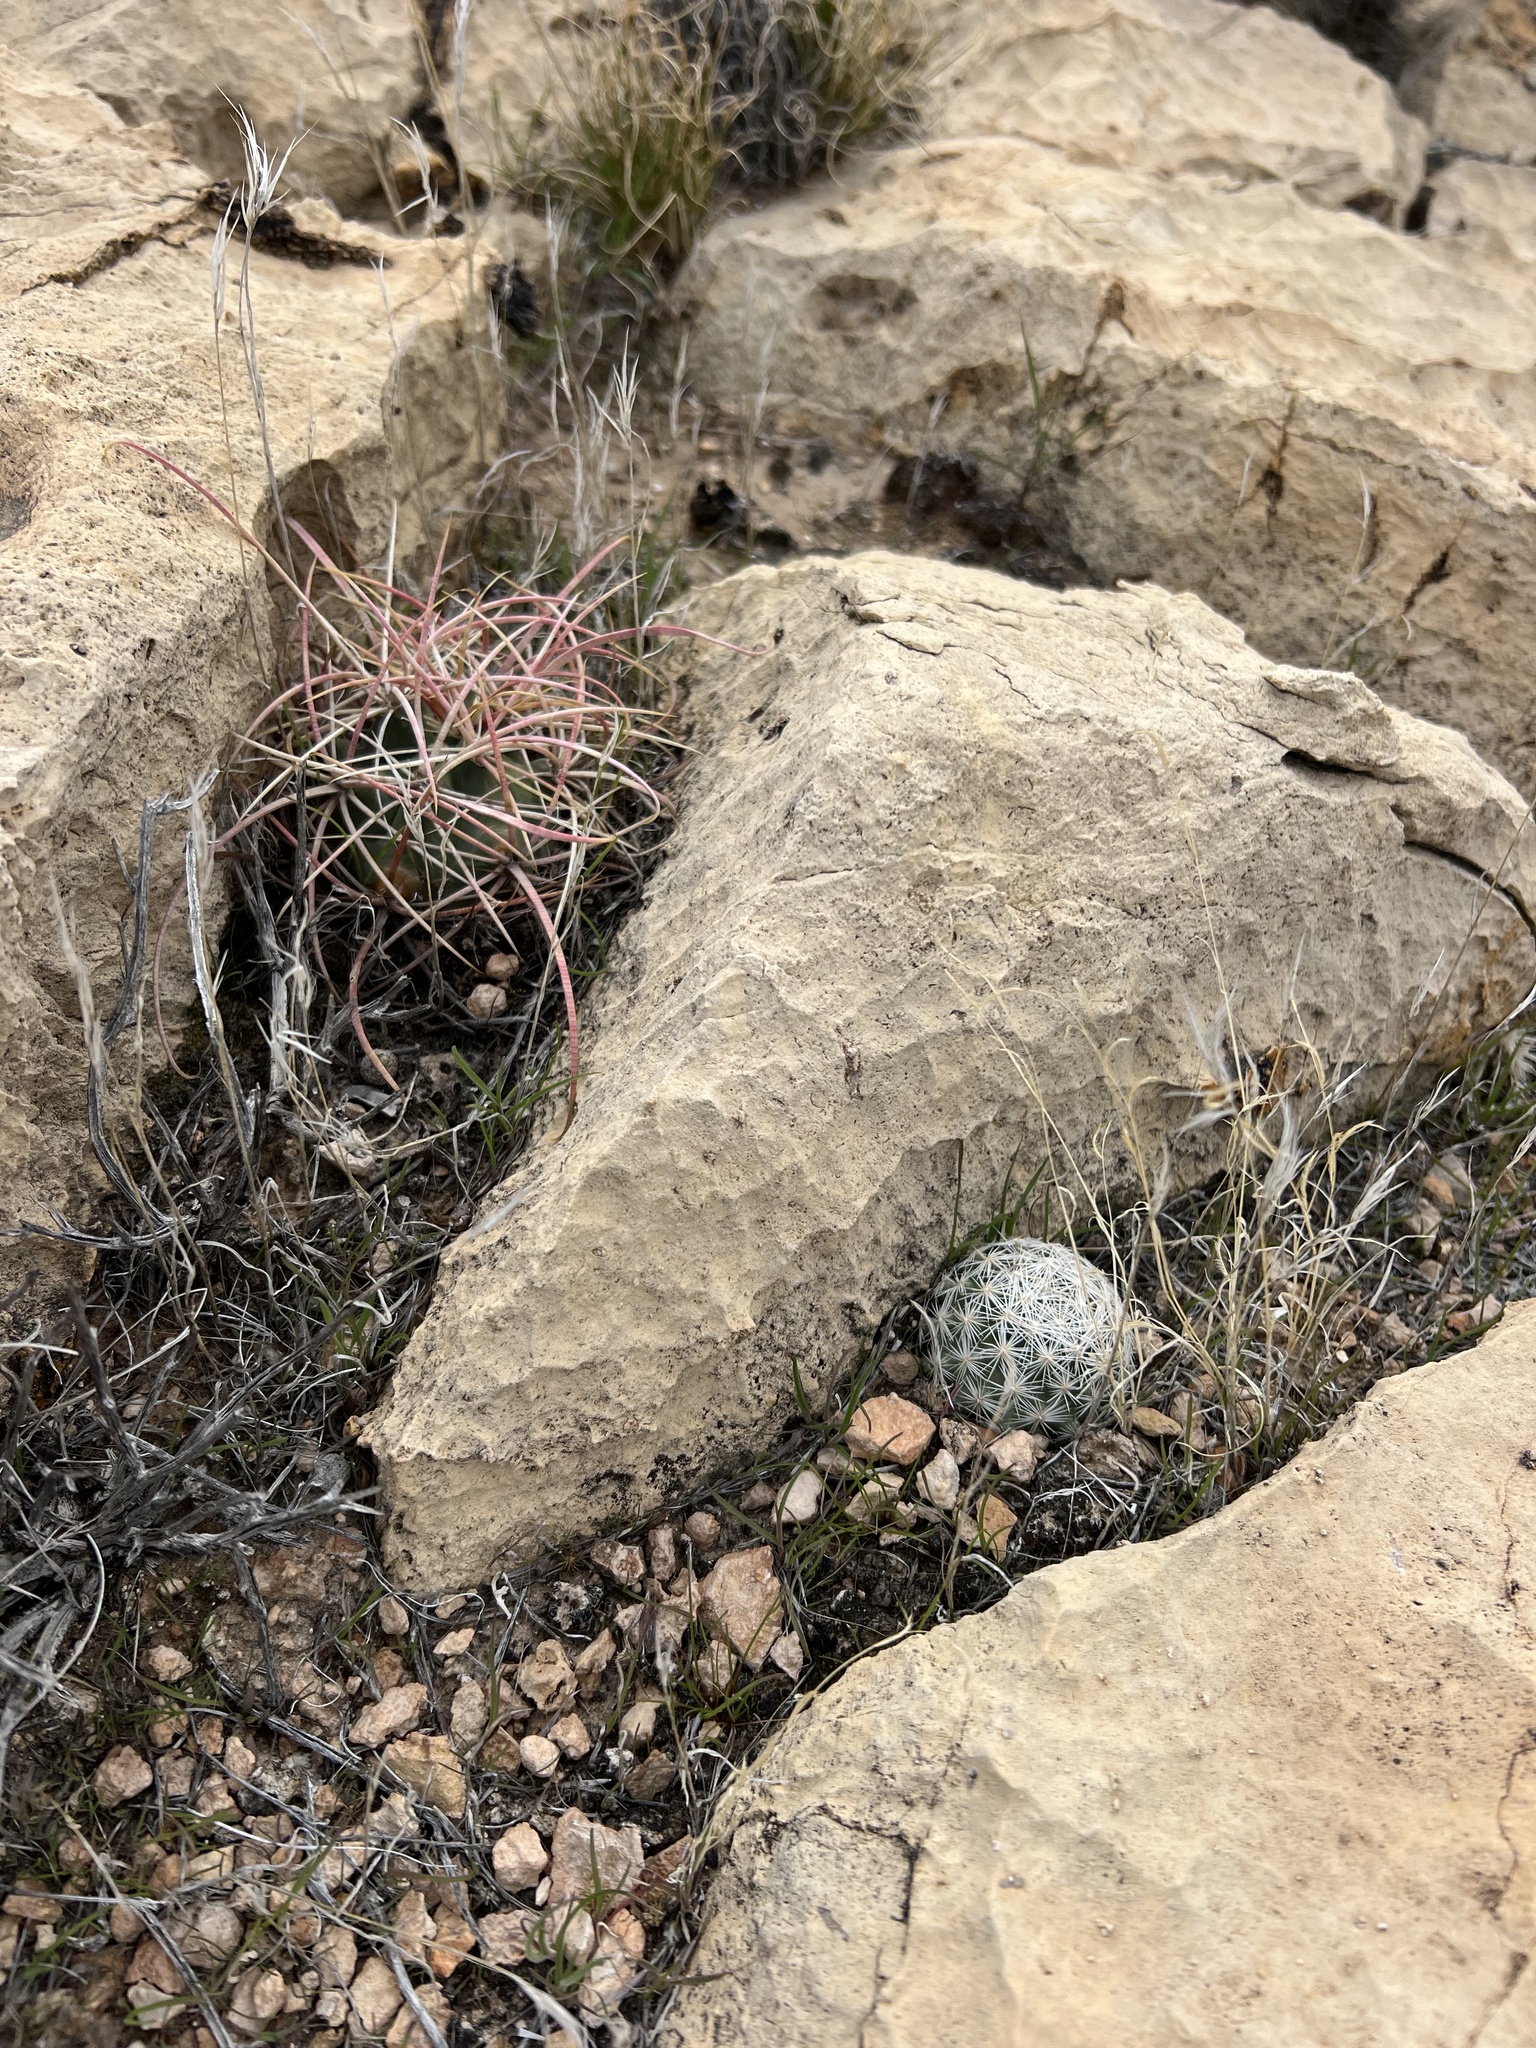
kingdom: Plantae
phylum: Tracheophyta
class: Magnoliopsida
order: Caryophyllales
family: Cactaceae
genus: Pelecyphora
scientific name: Pelecyphora dasyacantha
